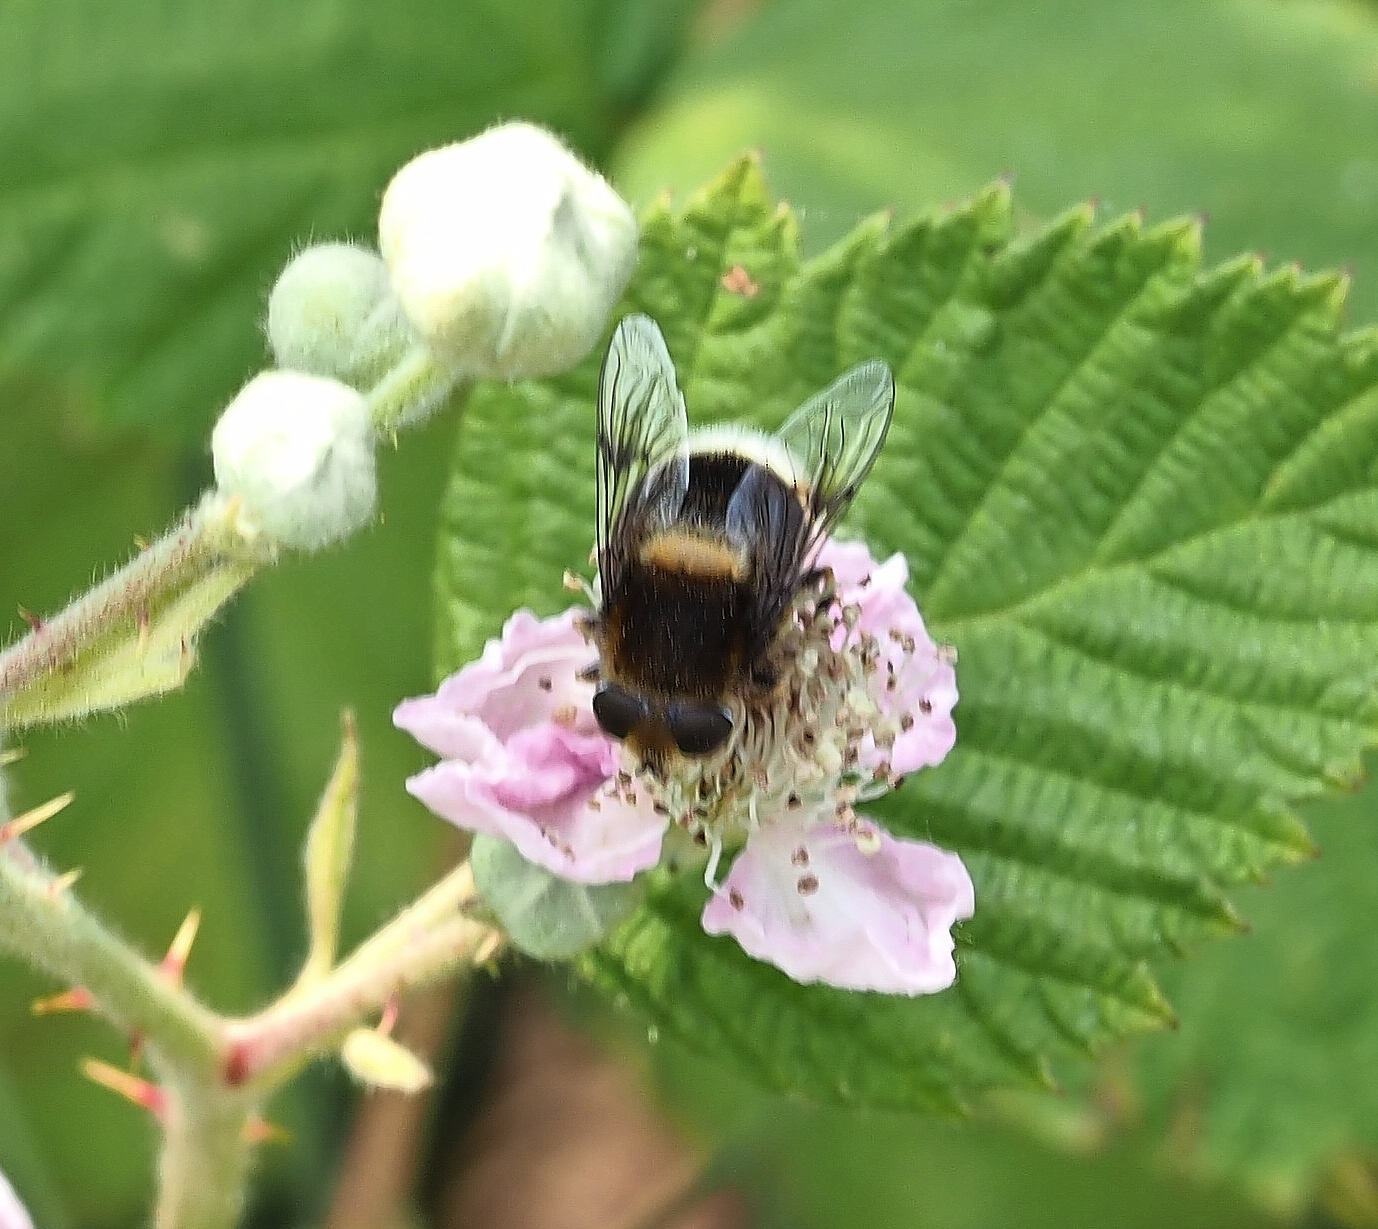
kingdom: Animalia
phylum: Arthropoda
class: Insecta
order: Diptera
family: Syrphidae
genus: Eristalis
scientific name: Eristalis intricaria
